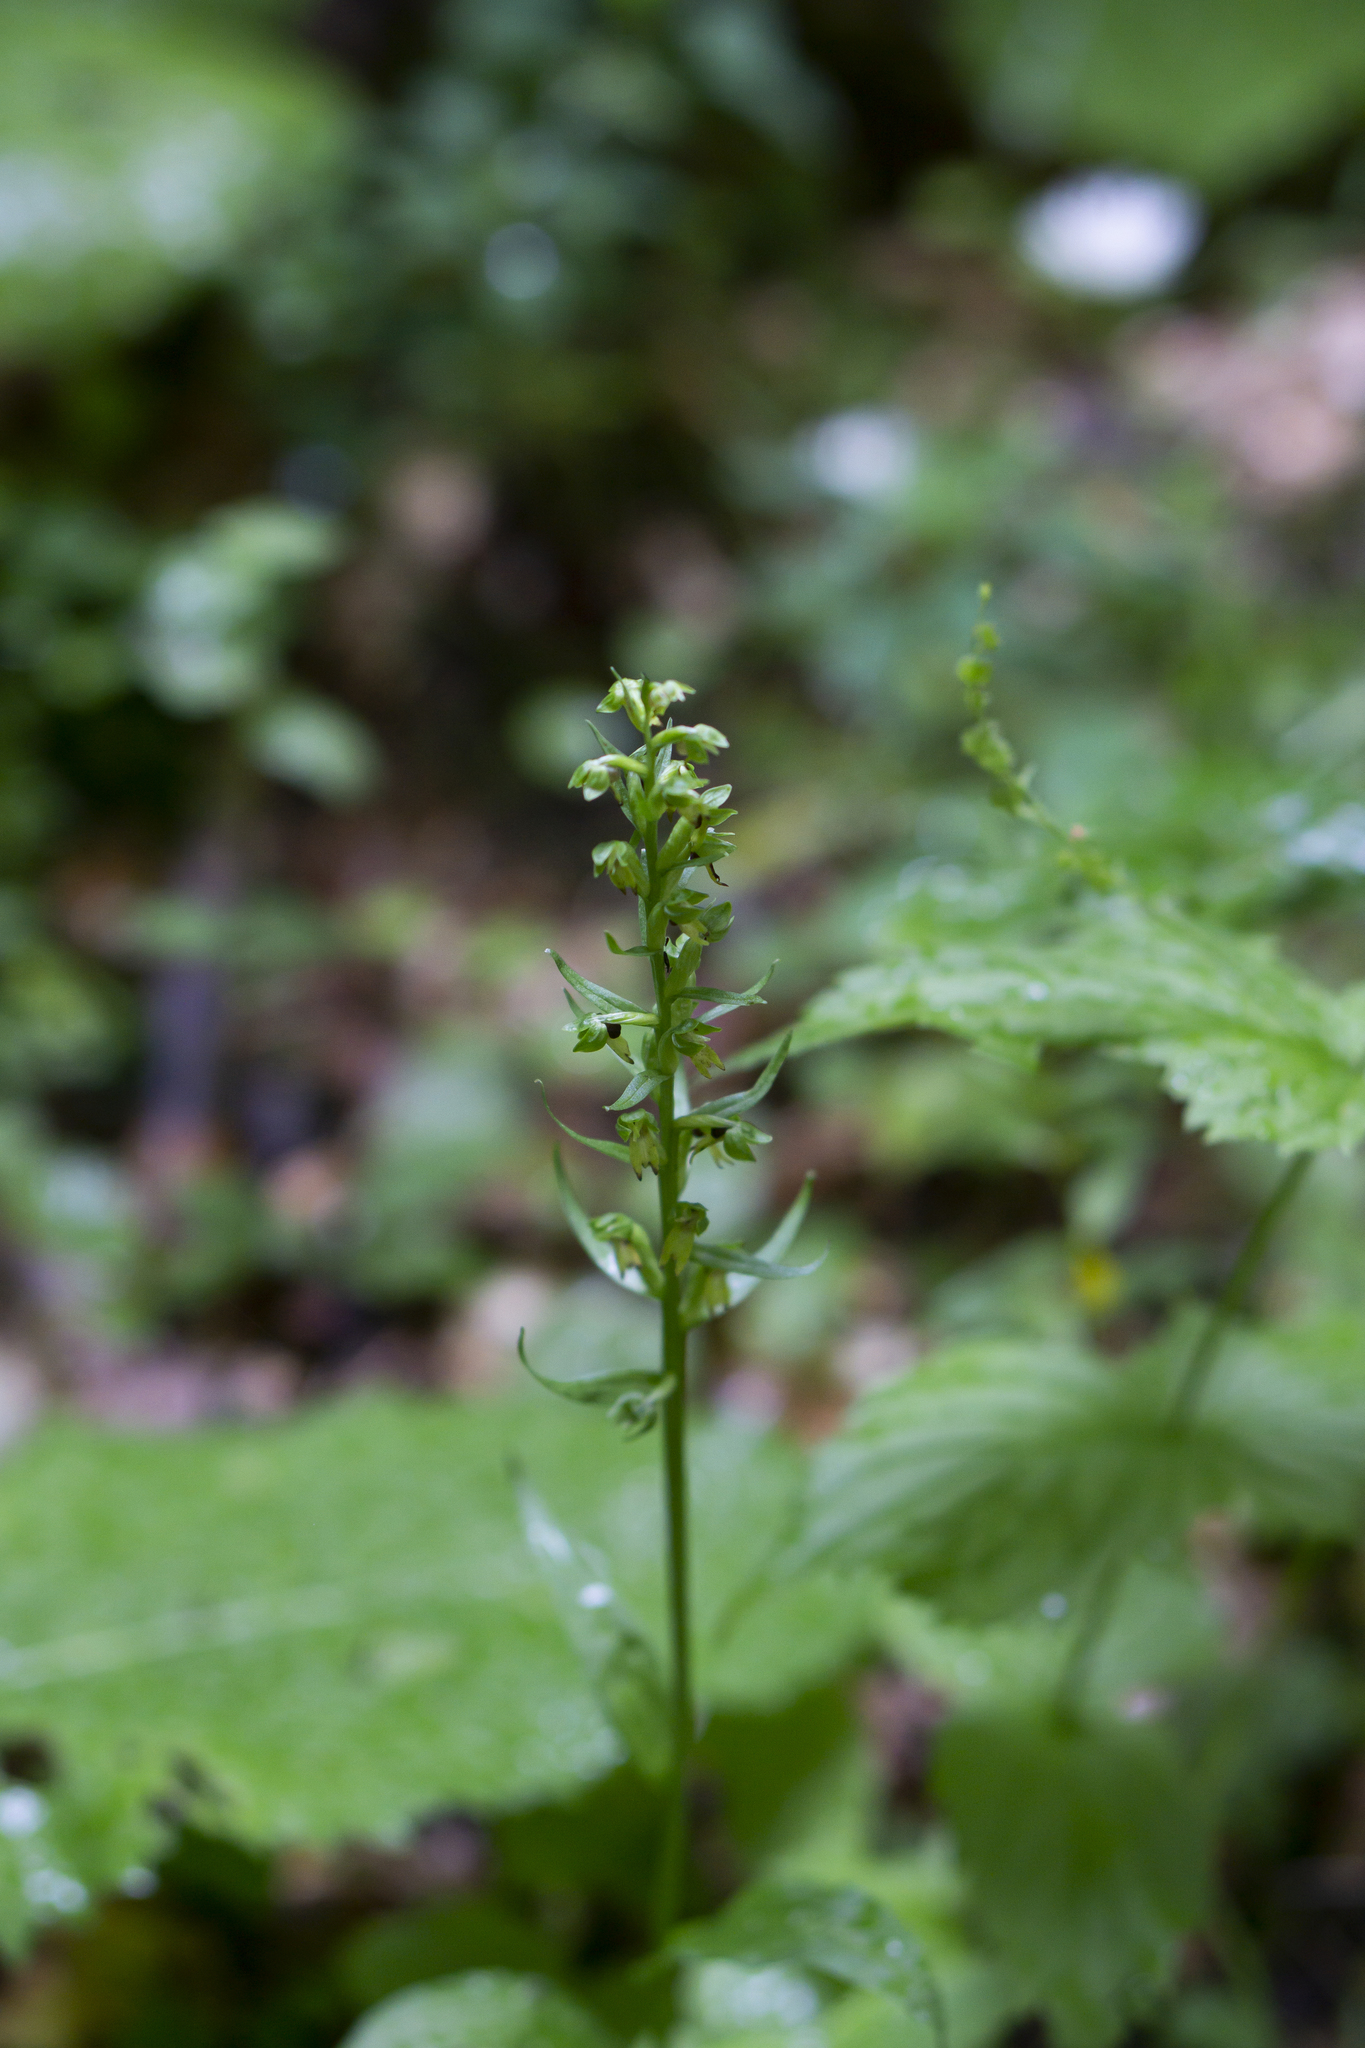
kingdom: Plantae
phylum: Tracheophyta
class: Liliopsida
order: Asparagales
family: Orchidaceae
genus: Dactylorhiza
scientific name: Dactylorhiza viridis
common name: Longbract frog orchid
